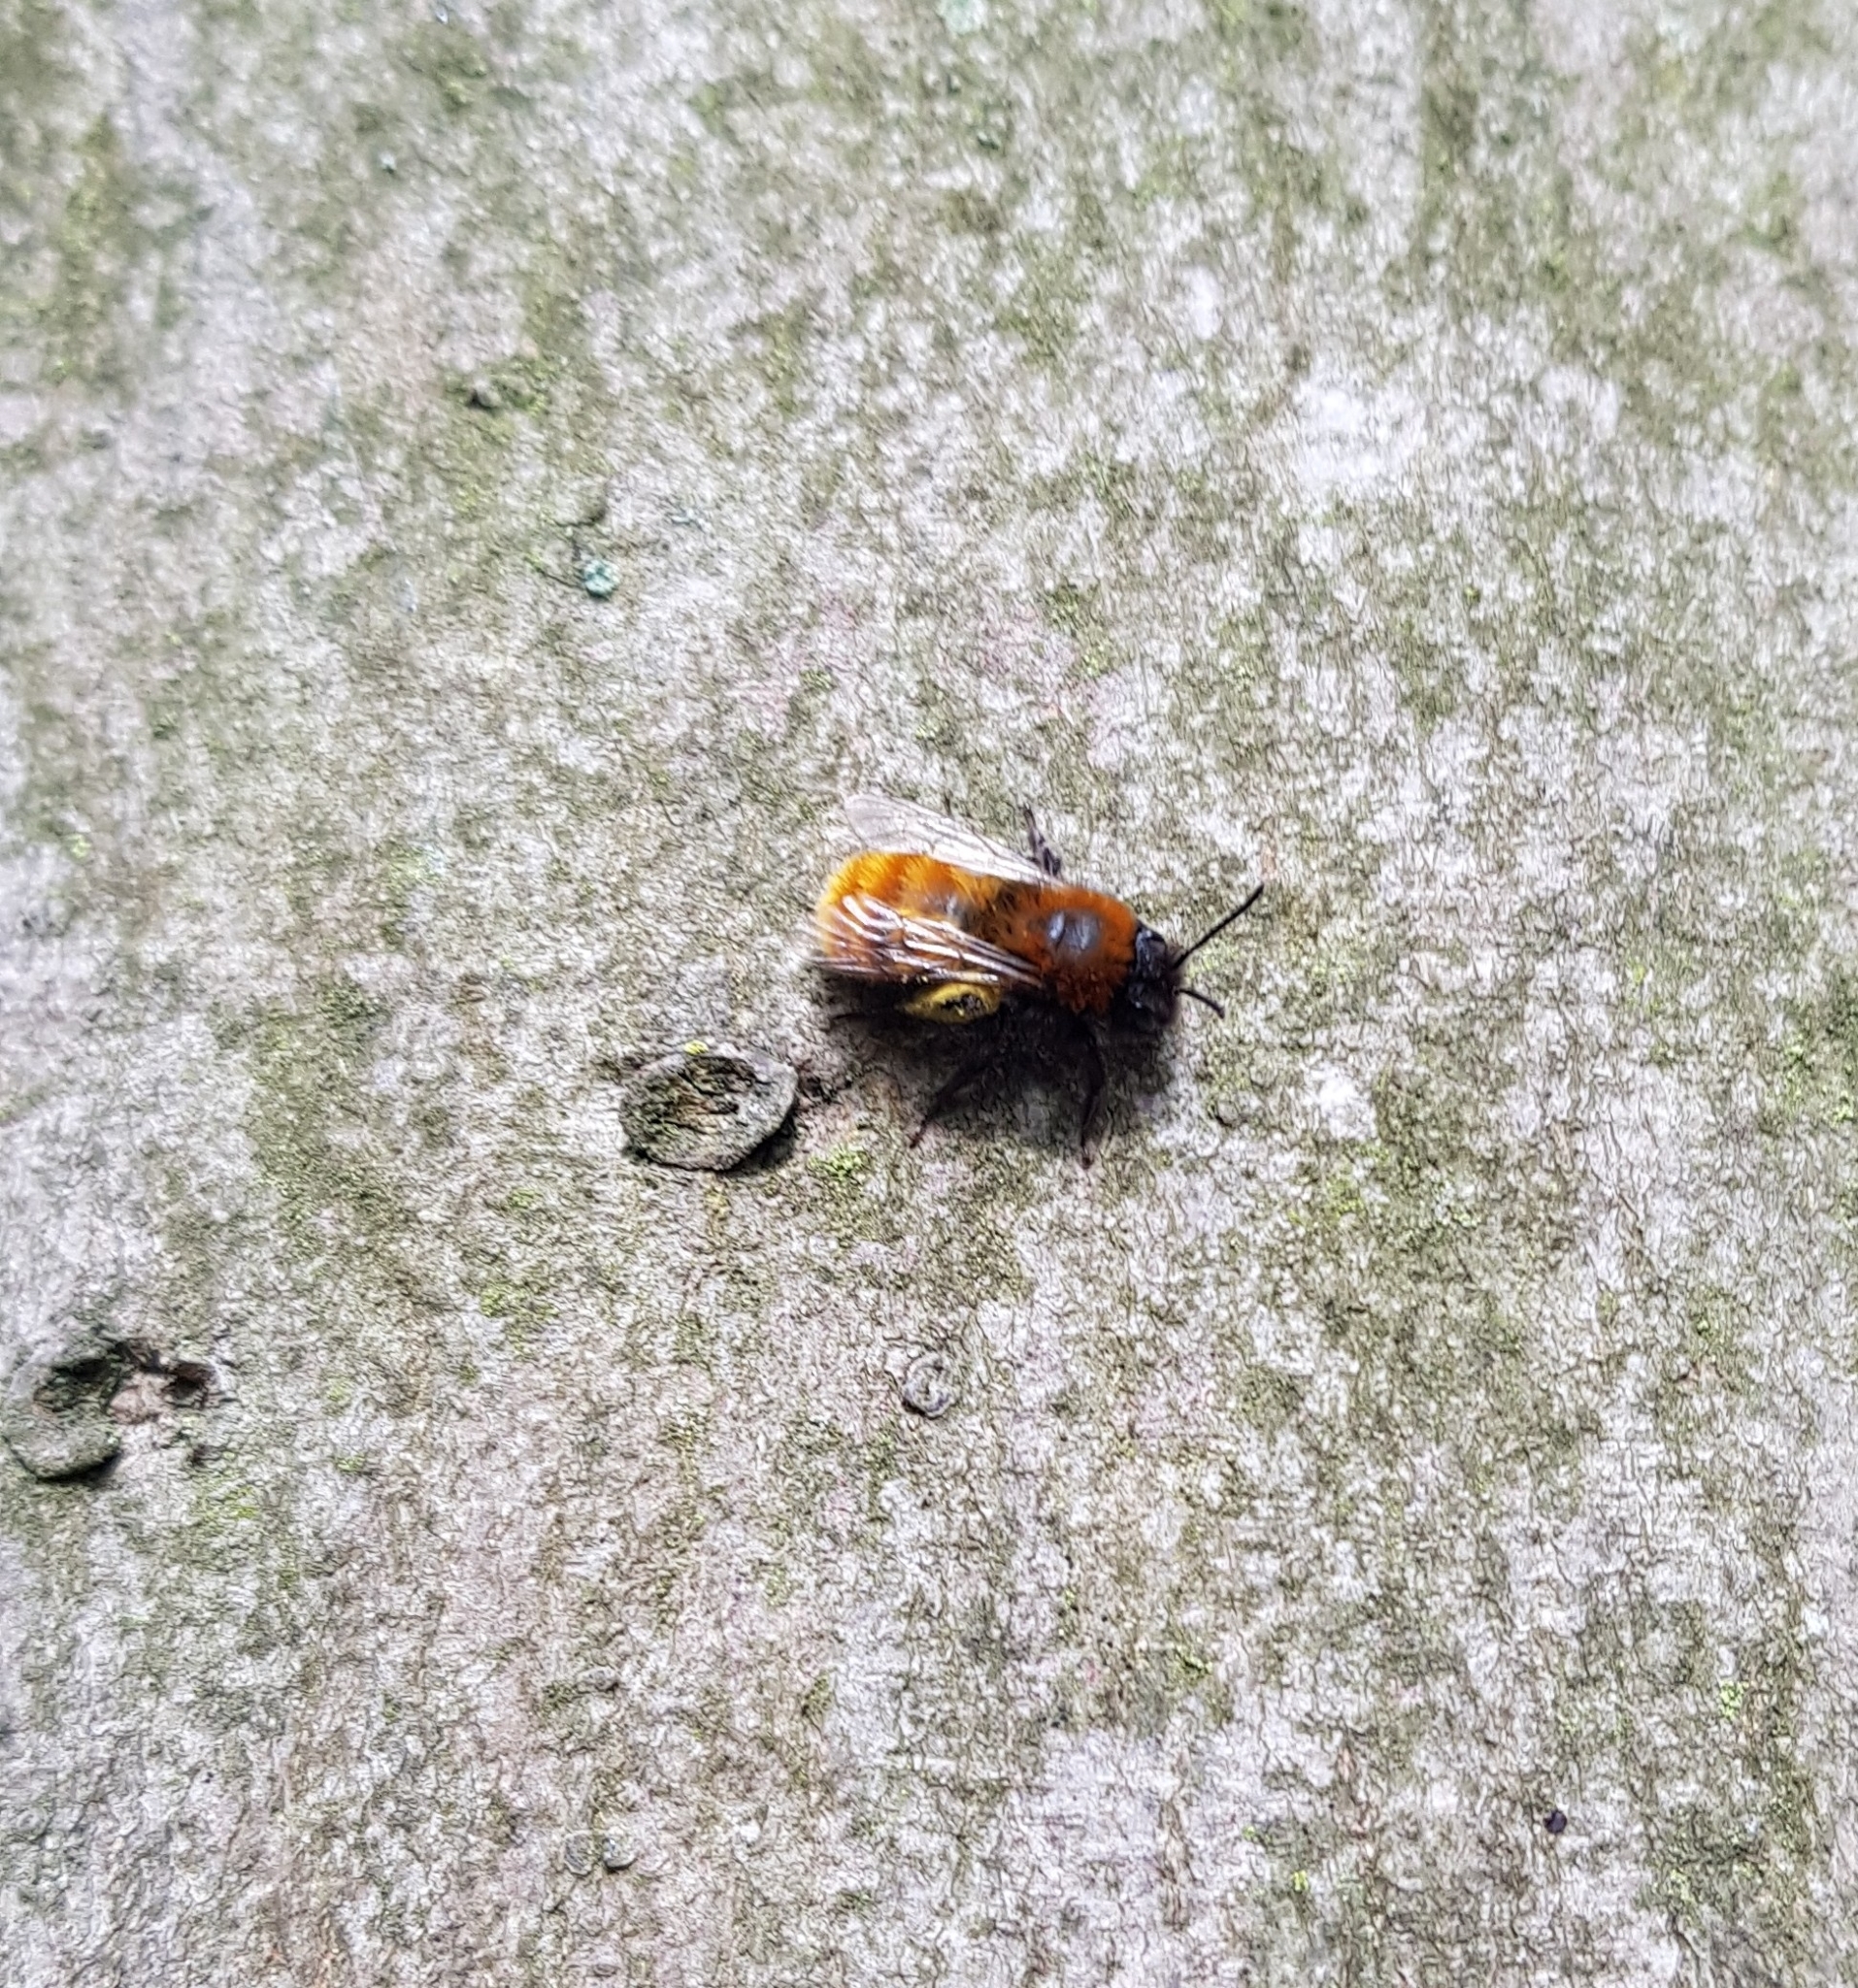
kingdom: Animalia
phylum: Arthropoda
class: Insecta
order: Hymenoptera
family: Andrenidae
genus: Andrena
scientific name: Andrena fulva
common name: Tawny mining bee
